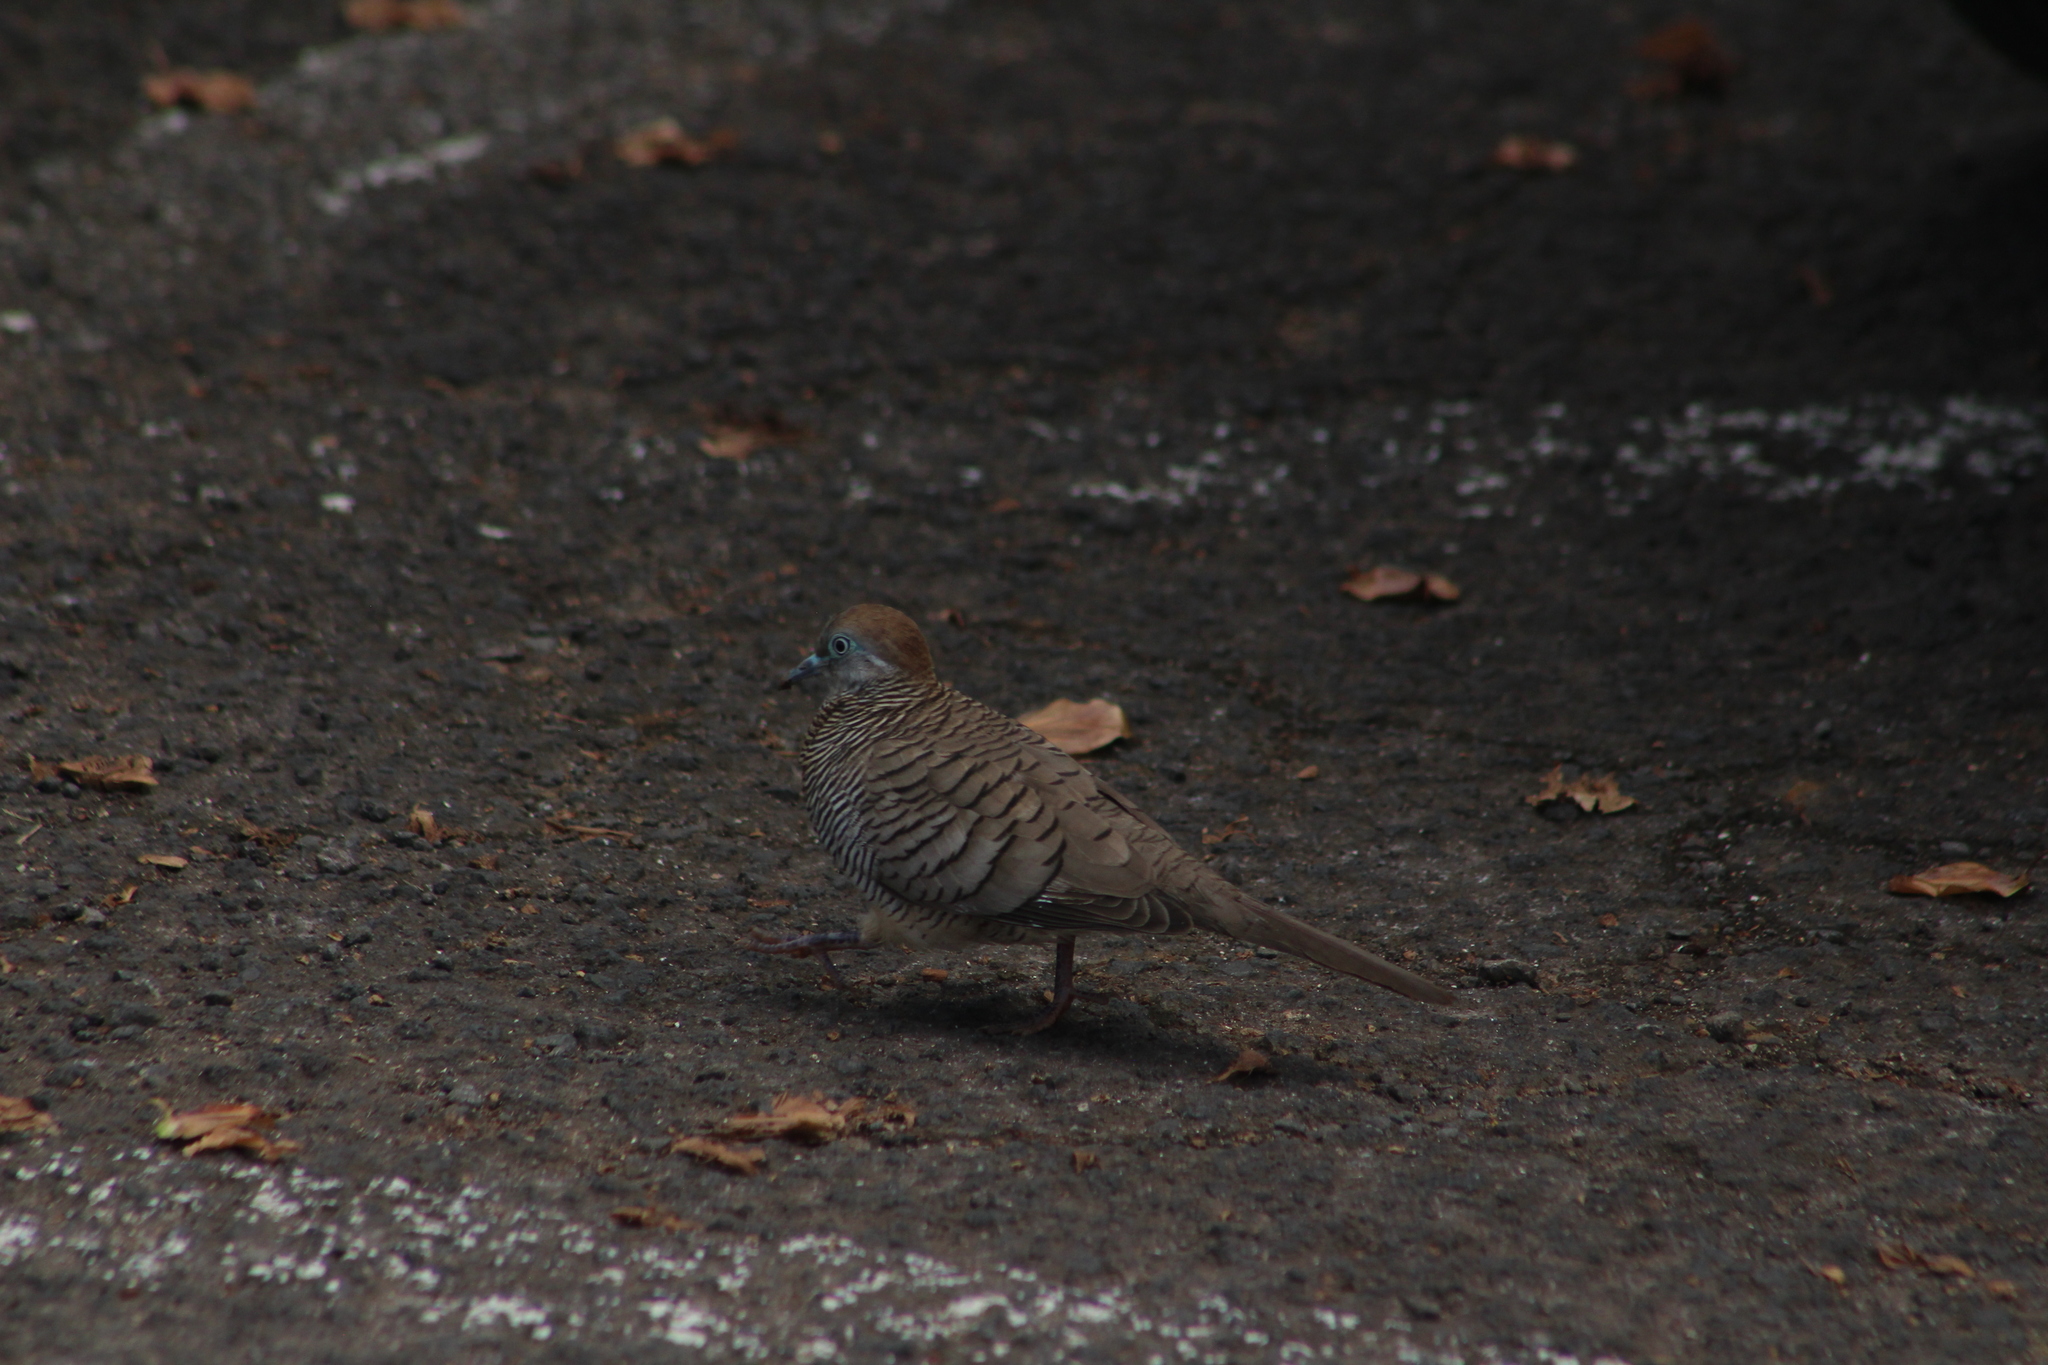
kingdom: Animalia
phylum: Chordata
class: Aves
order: Columbiformes
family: Columbidae
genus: Geopelia
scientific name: Geopelia striata
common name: Zebra dove
